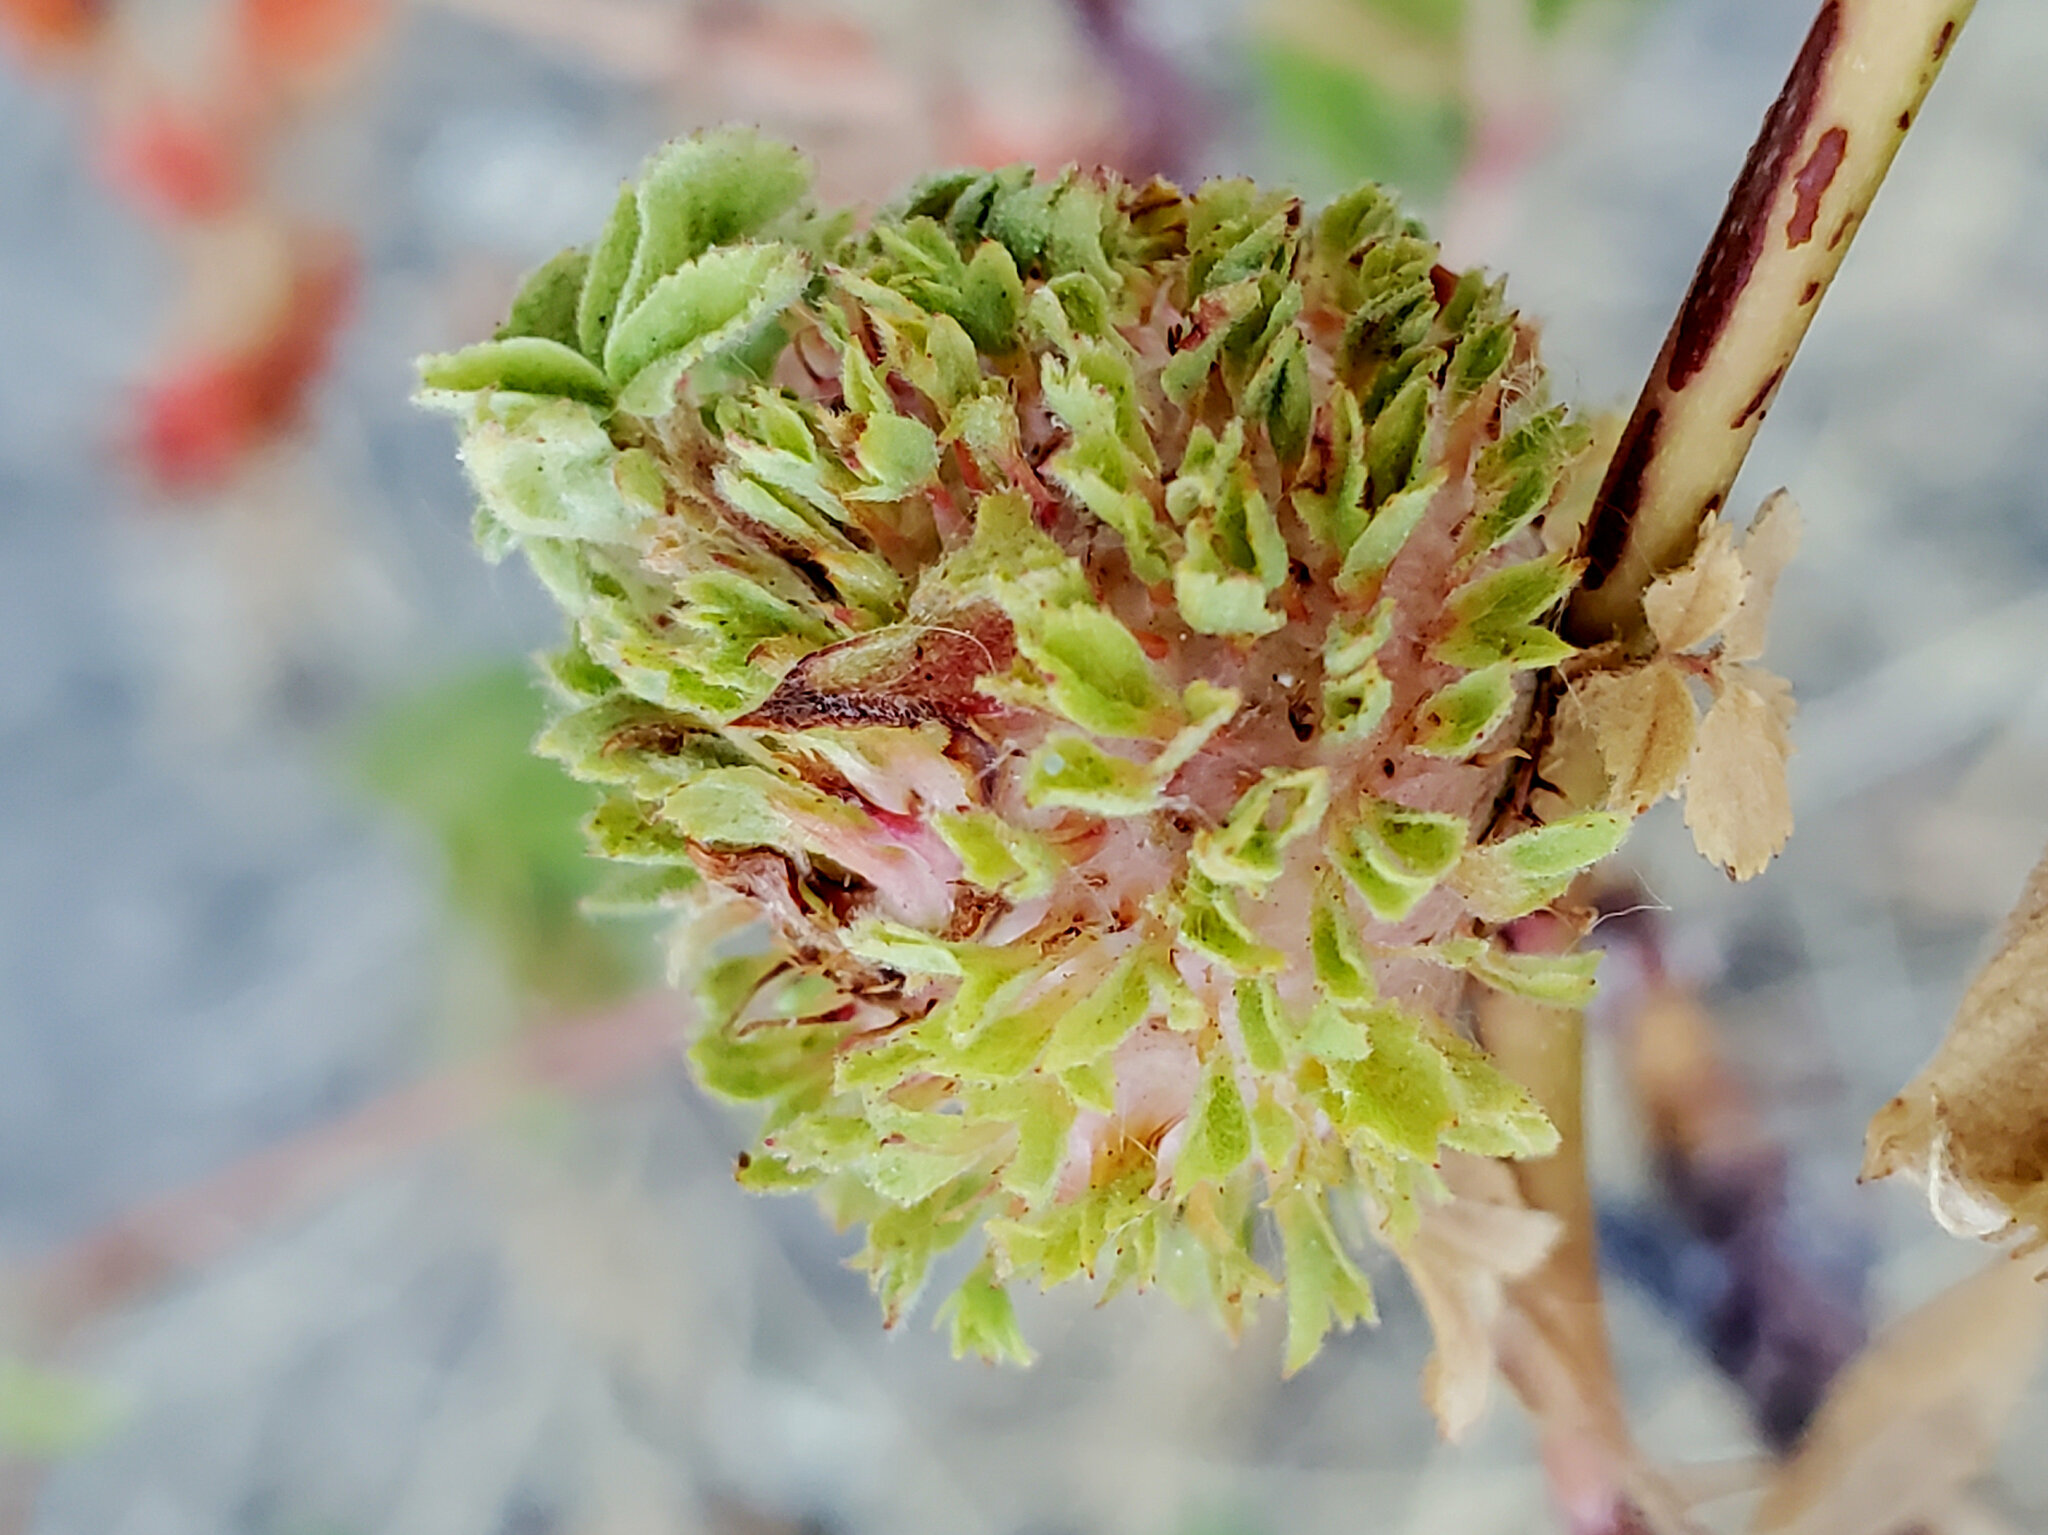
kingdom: Animalia
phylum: Arthropoda
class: Insecta
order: Hymenoptera
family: Cynipidae
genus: Diplolepis
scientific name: Diplolepis californica
